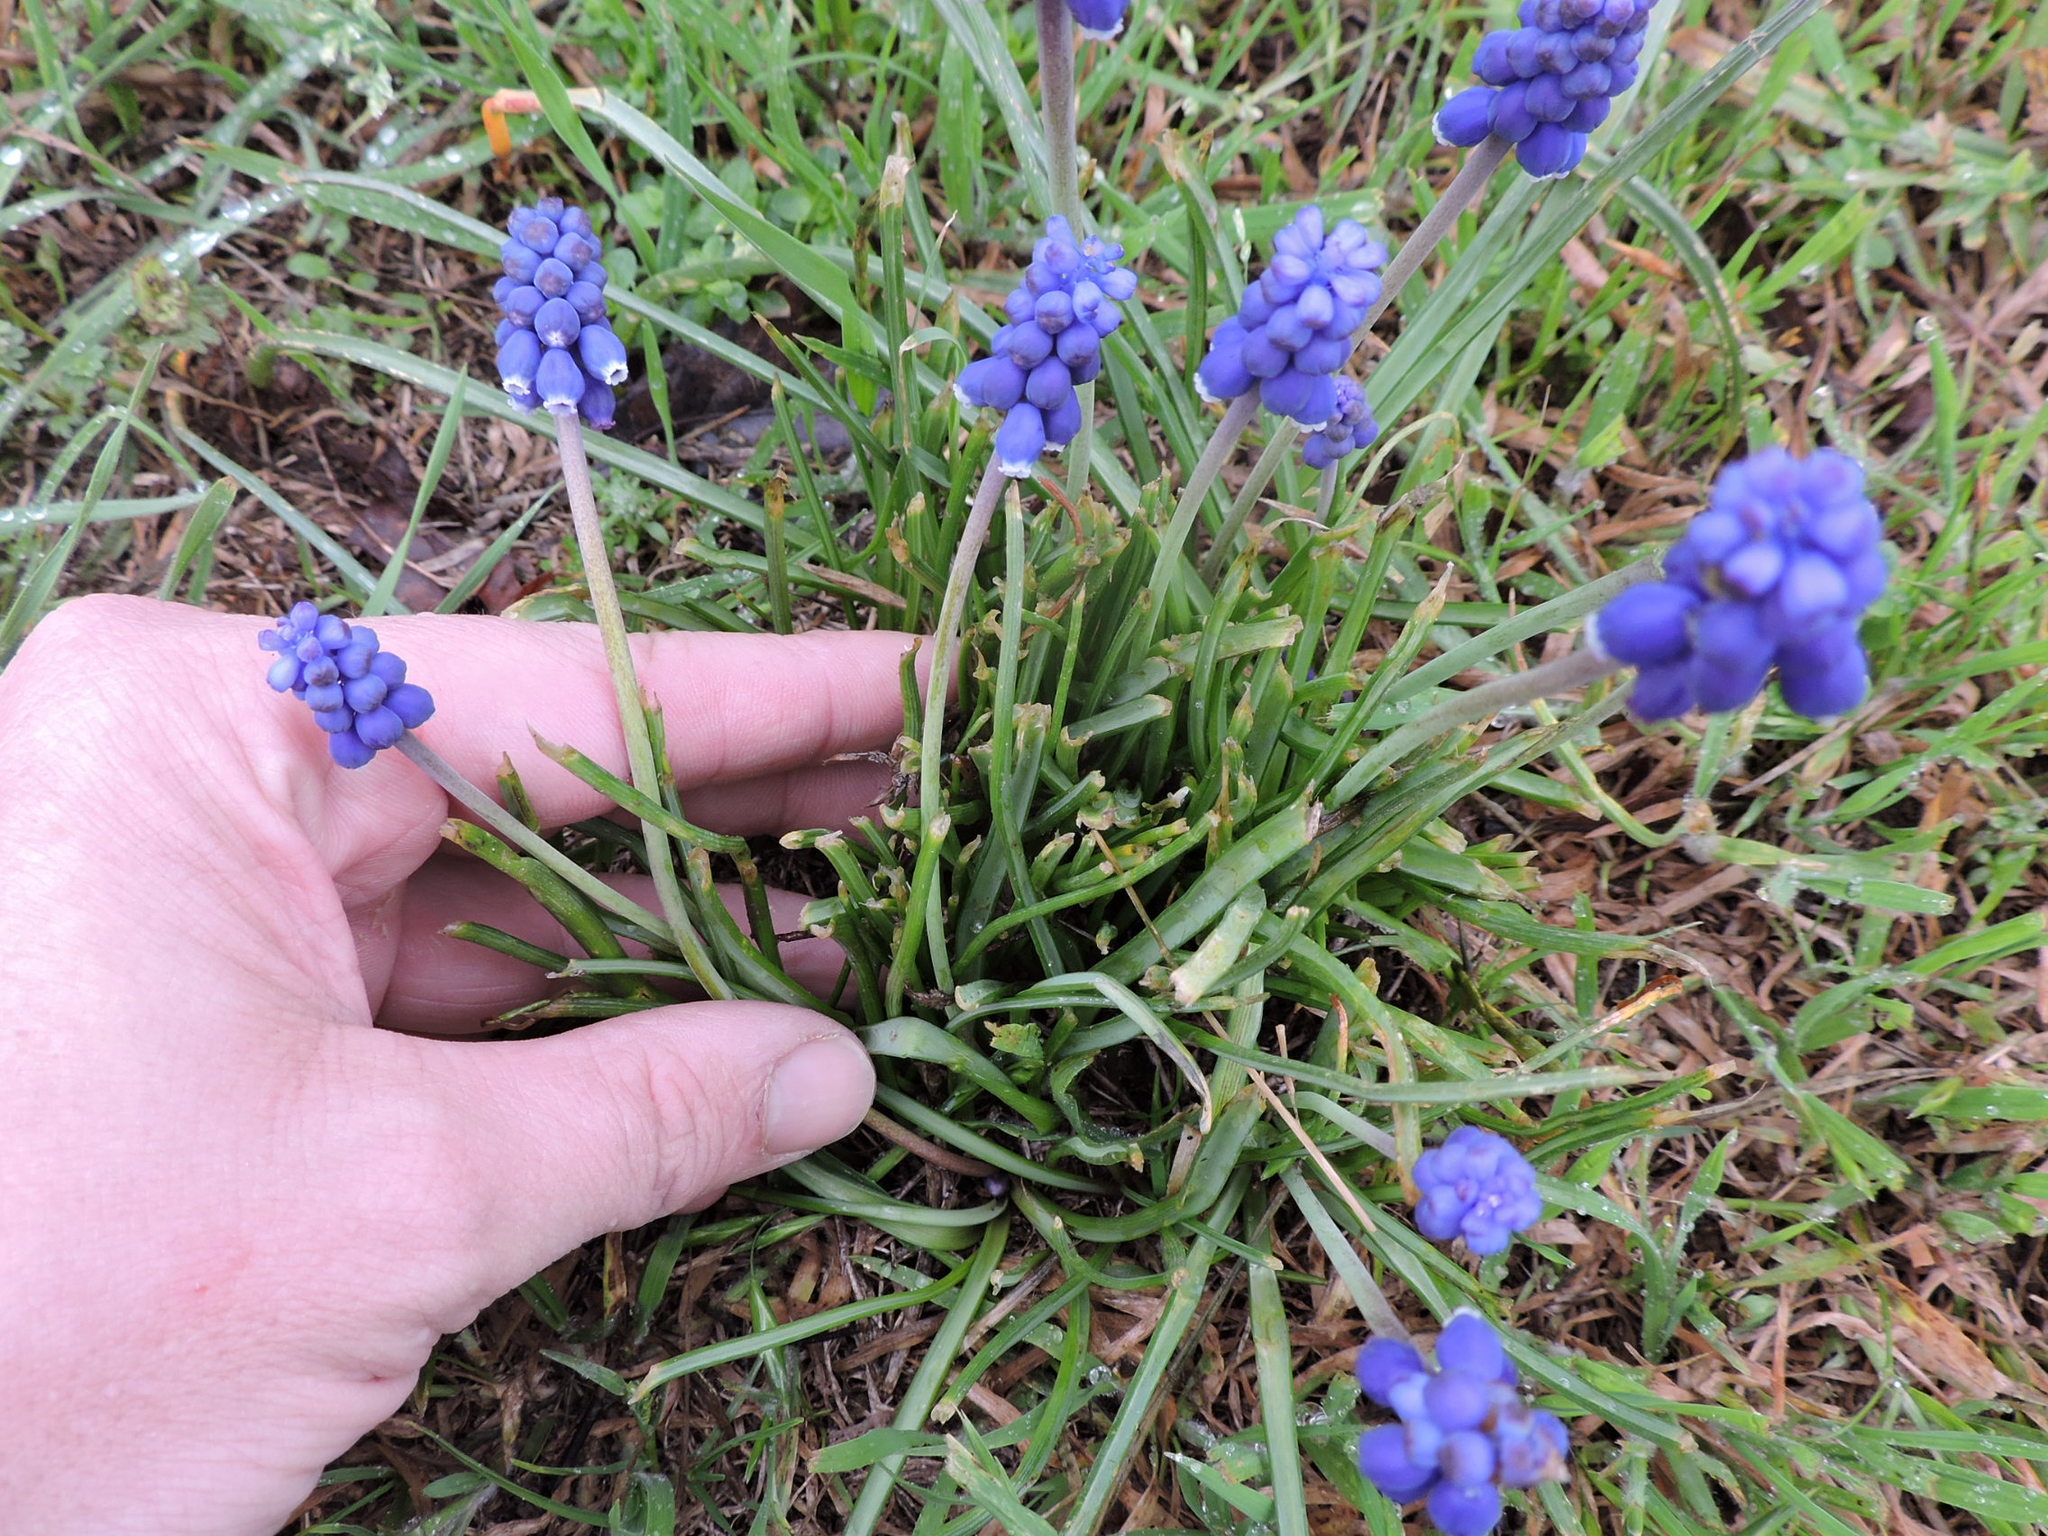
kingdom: Plantae
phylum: Tracheophyta
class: Liliopsida
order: Asparagales
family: Asparagaceae
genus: Muscari
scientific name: Muscari neglectum
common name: Grape-hyacinth
